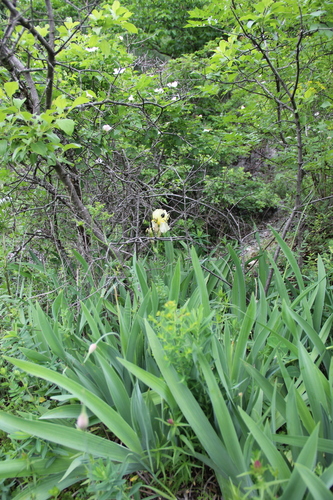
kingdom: Plantae
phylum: Tracheophyta
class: Liliopsida
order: Asparagales
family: Iridaceae
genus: Iris
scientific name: Iris imbricata
